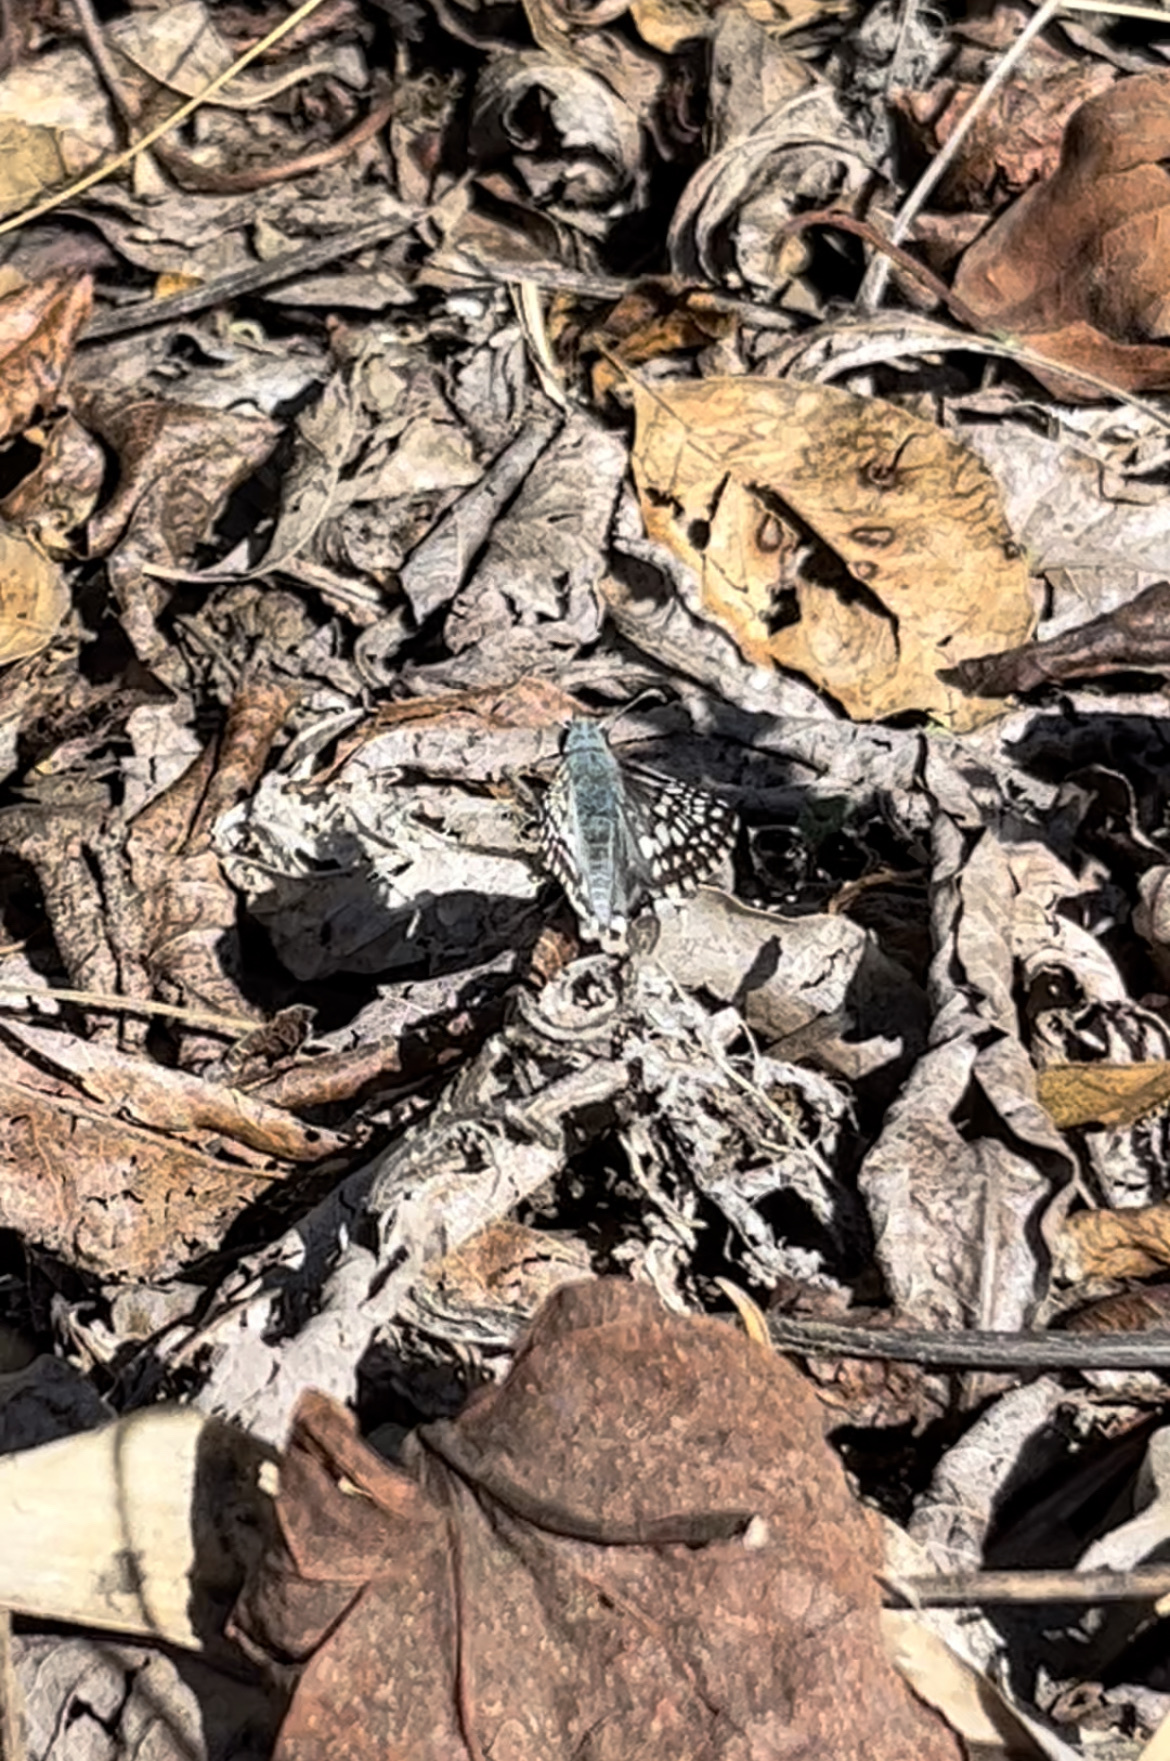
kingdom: Animalia
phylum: Arthropoda
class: Insecta
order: Lepidoptera
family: Hesperiidae
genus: Burnsius
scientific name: Burnsius communis
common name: Common checkered-skipper
